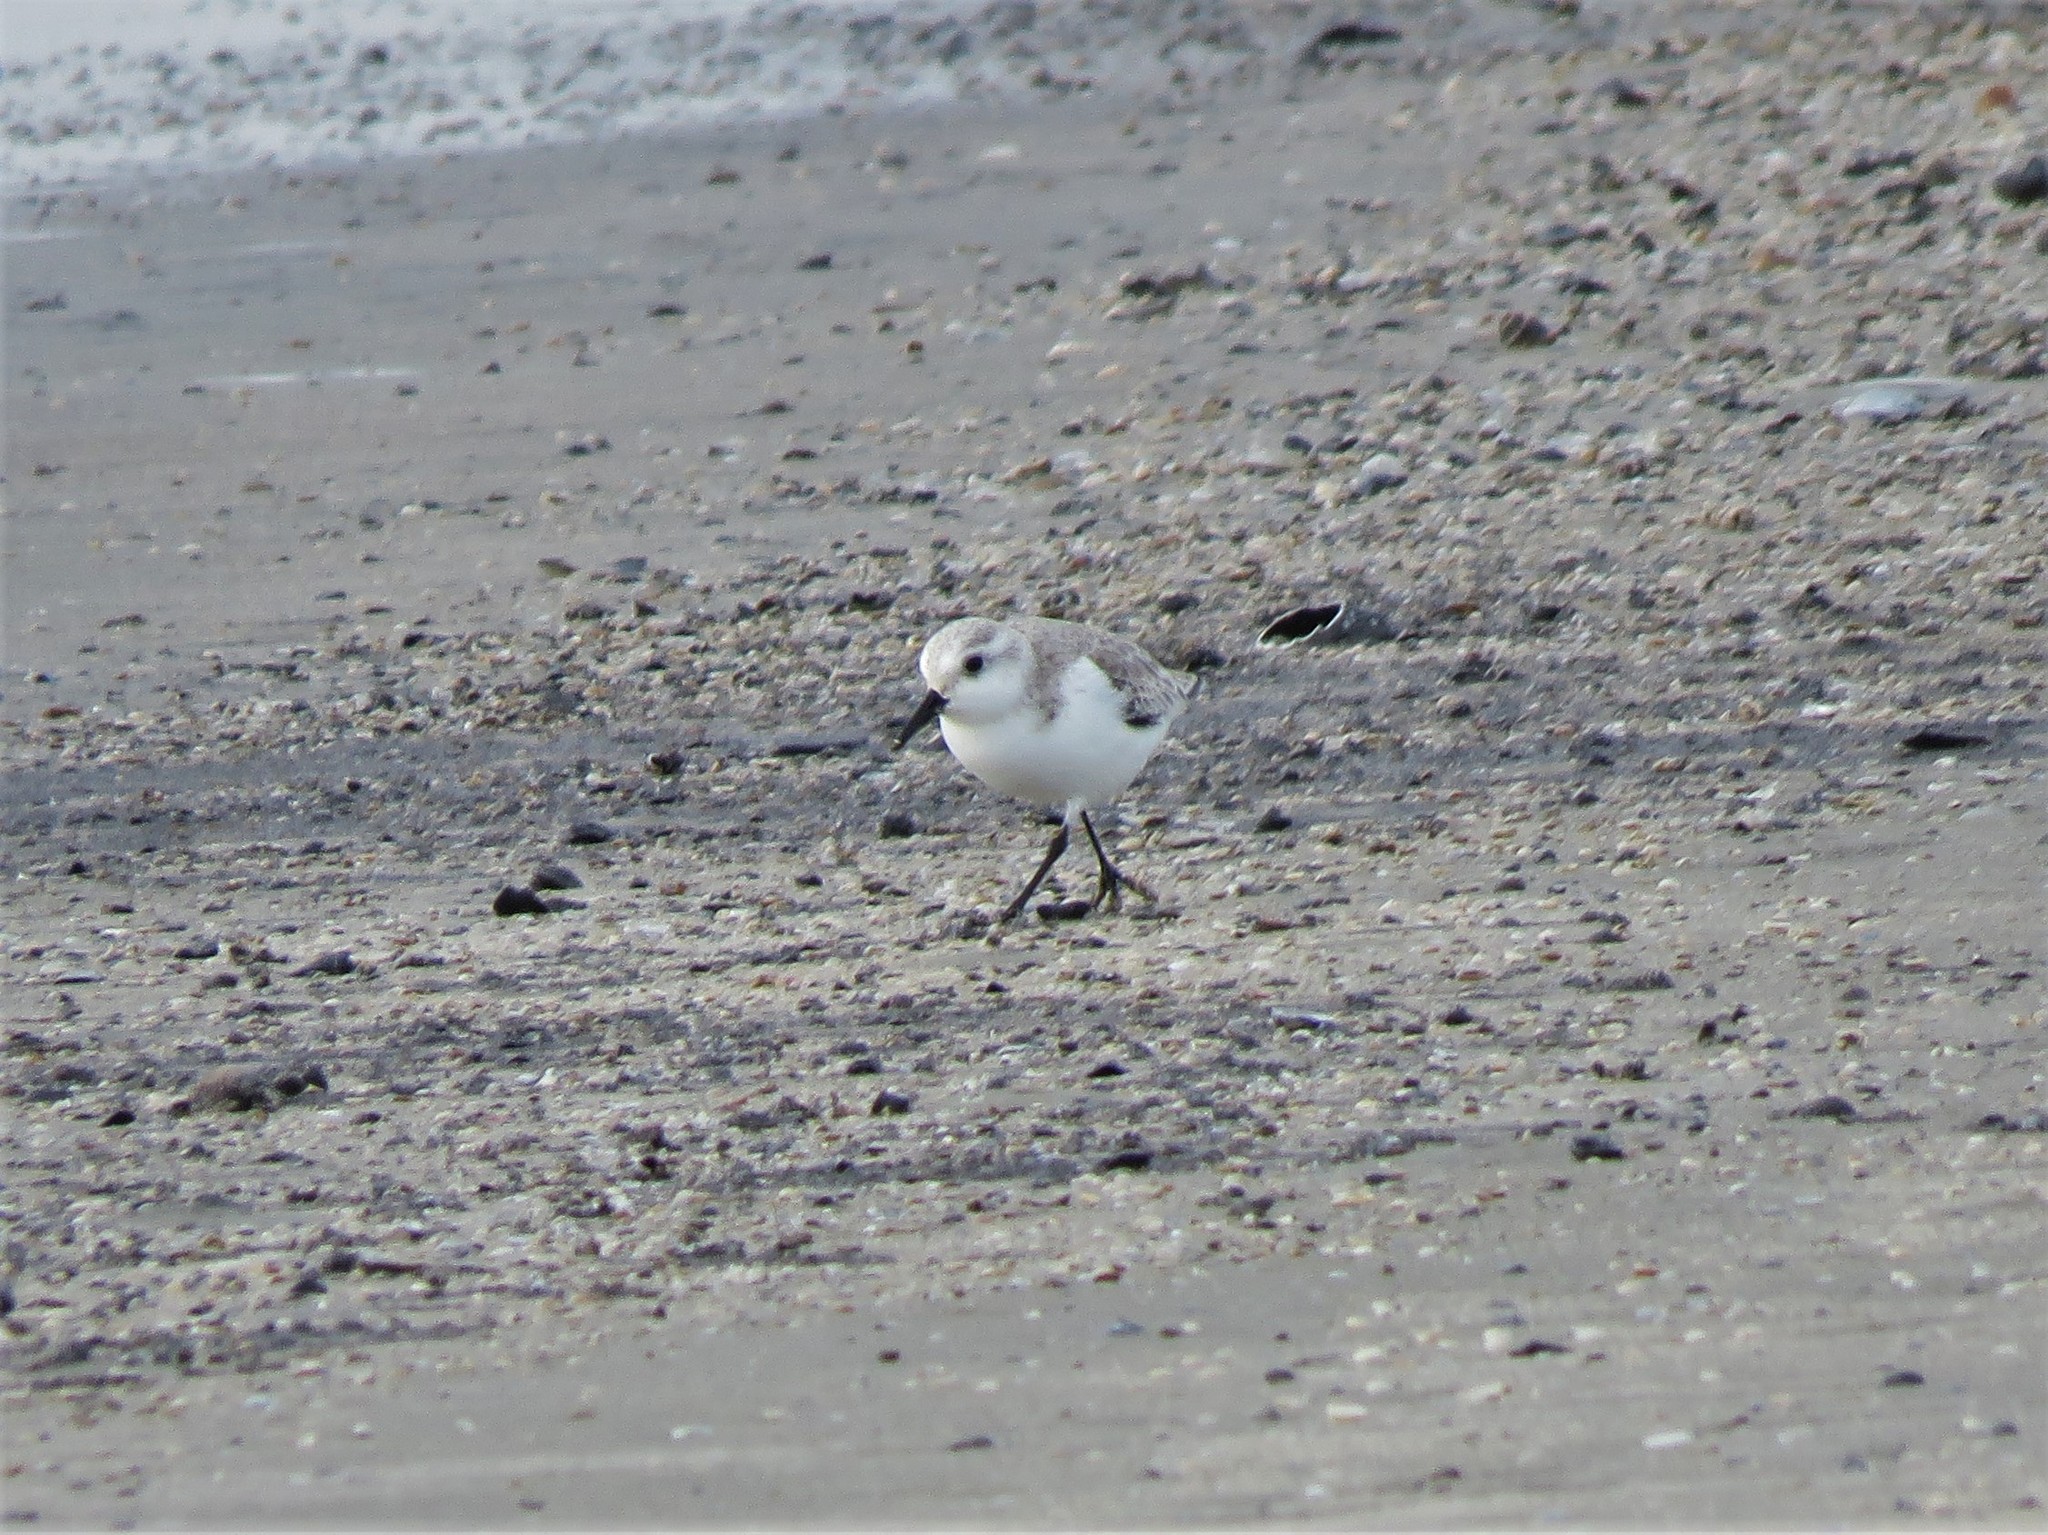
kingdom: Animalia
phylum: Chordata
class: Aves
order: Charadriiformes
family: Scolopacidae
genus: Calidris
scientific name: Calidris alba
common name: Sanderling
